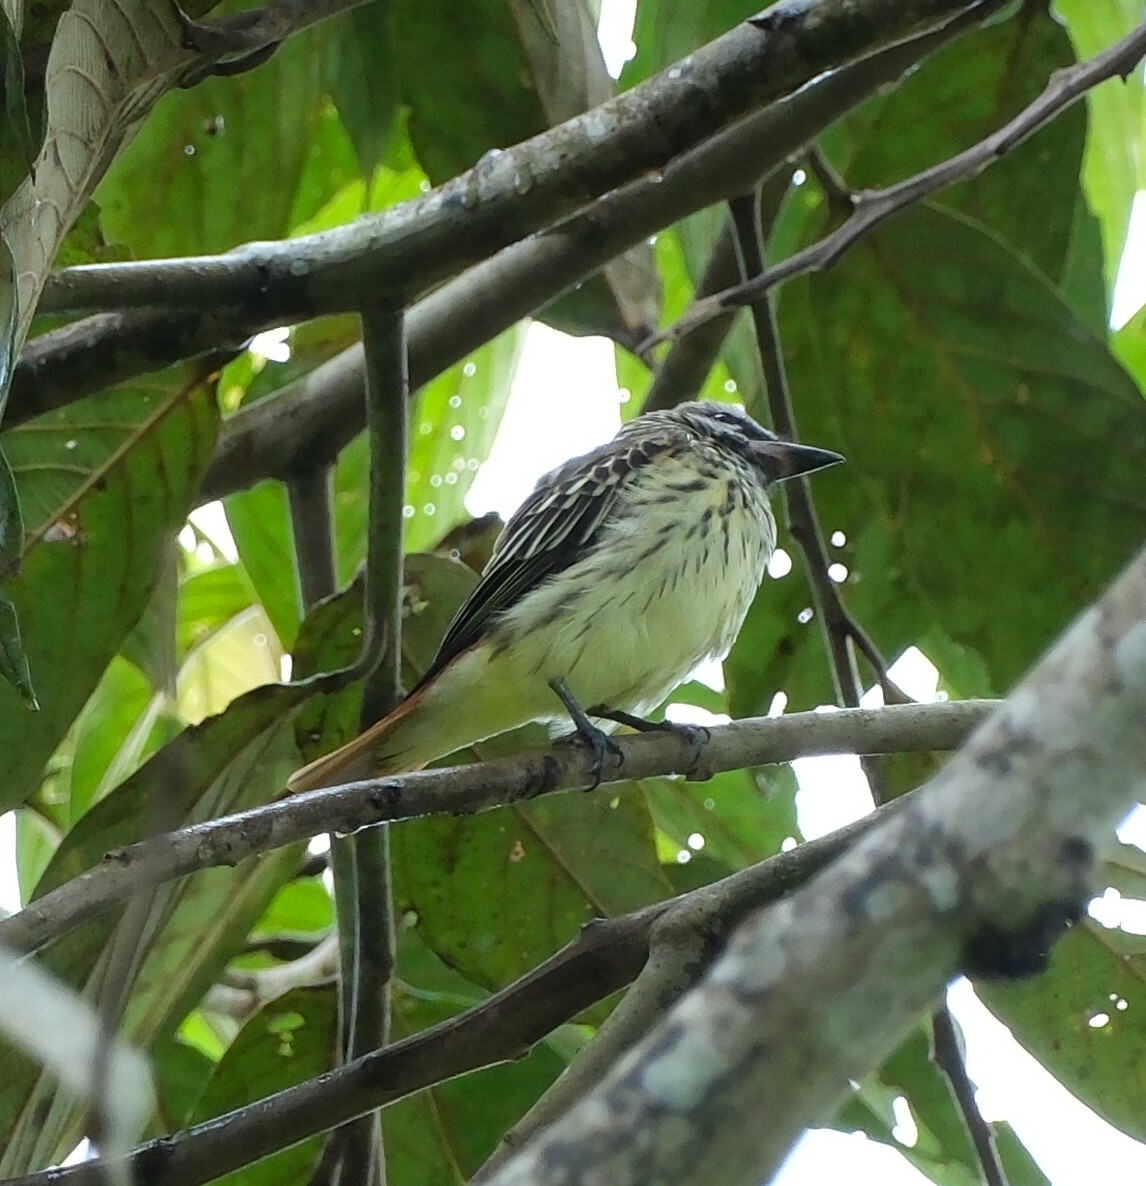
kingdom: Animalia
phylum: Chordata
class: Aves
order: Passeriformes
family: Tyrannidae
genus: Myiodynastes
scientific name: Myiodynastes luteiventris
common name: Sulphur-bellied flycatcher
